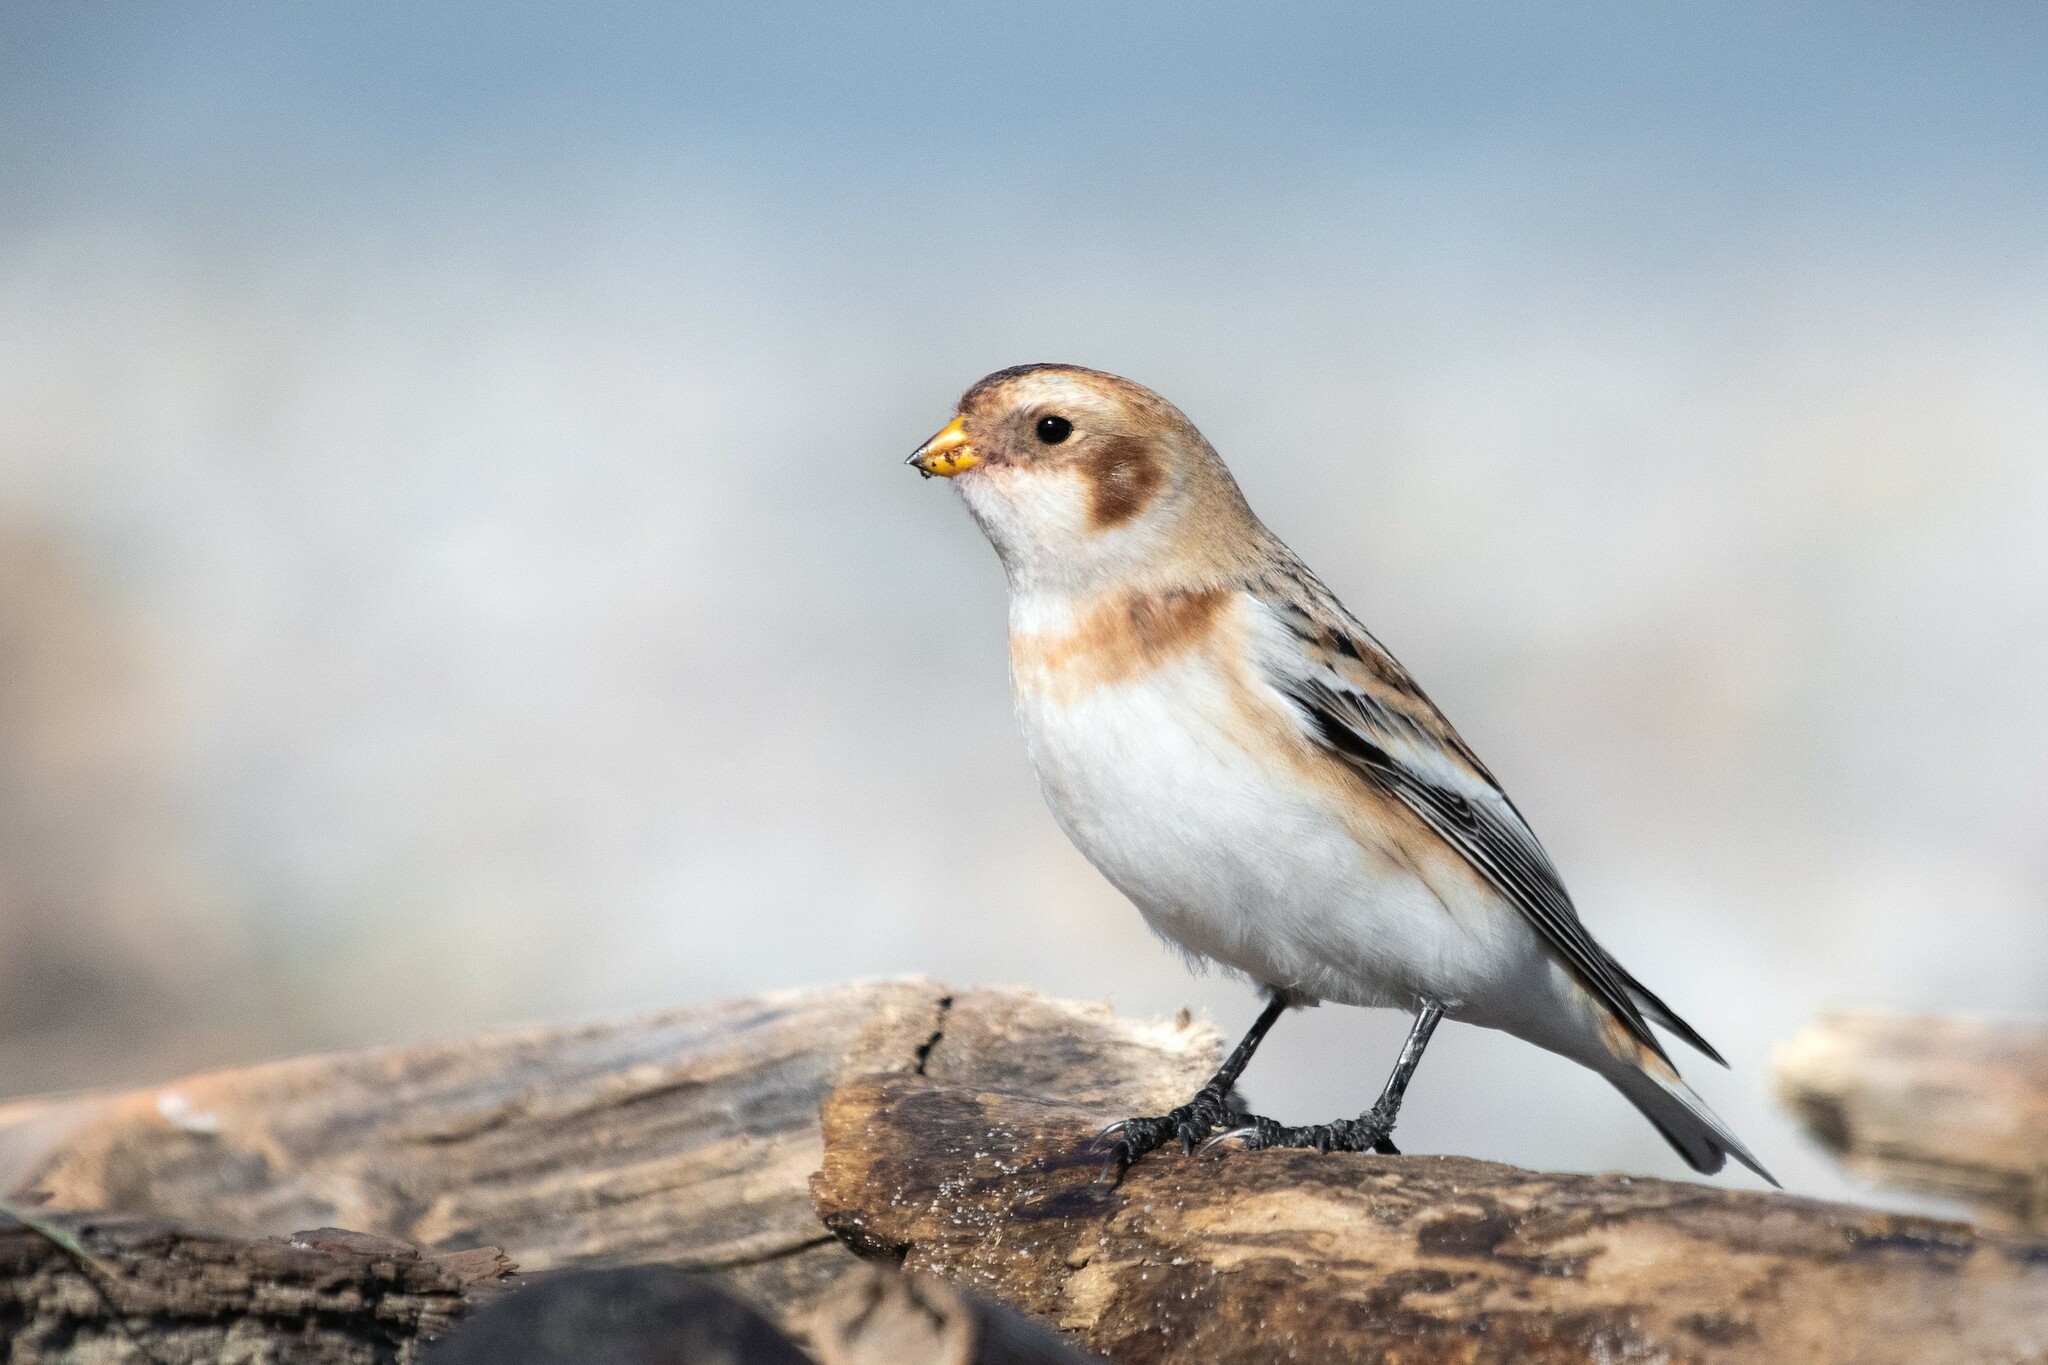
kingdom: Animalia
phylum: Chordata
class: Aves
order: Passeriformes
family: Calcariidae
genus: Plectrophenax
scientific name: Plectrophenax nivalis
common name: Snow bunting
